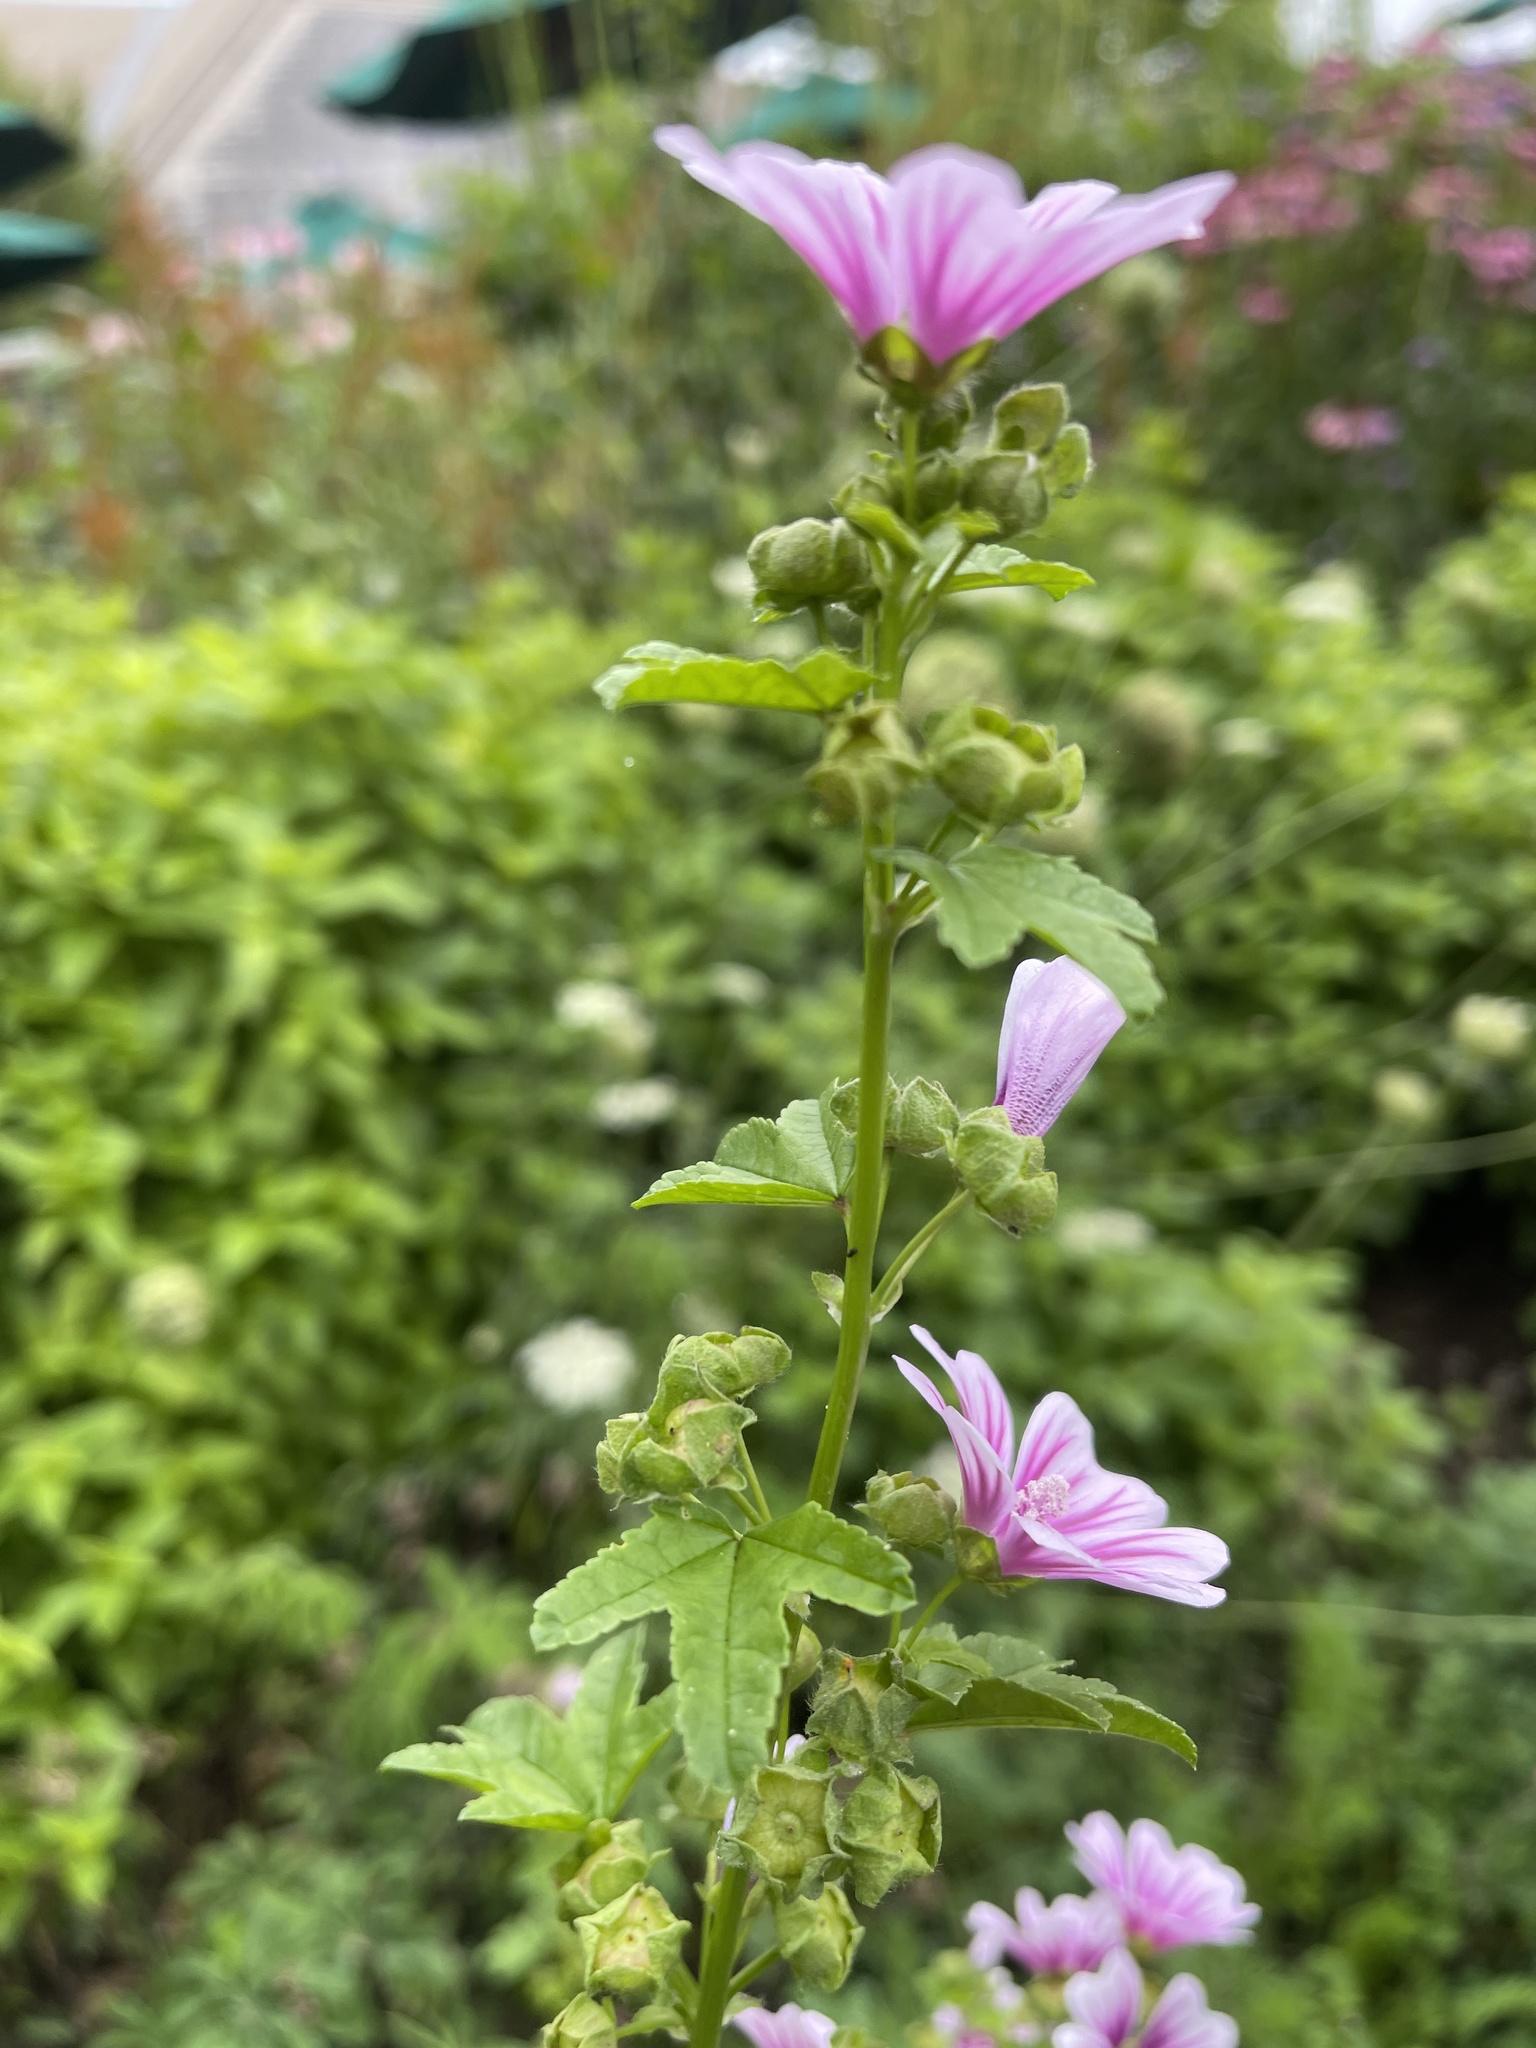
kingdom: Plantae
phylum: Tracheophyta
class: Magnoliopsida
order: Malvales
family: Malvaceae
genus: Malva
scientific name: Malva sylvestris
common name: Common mallow
